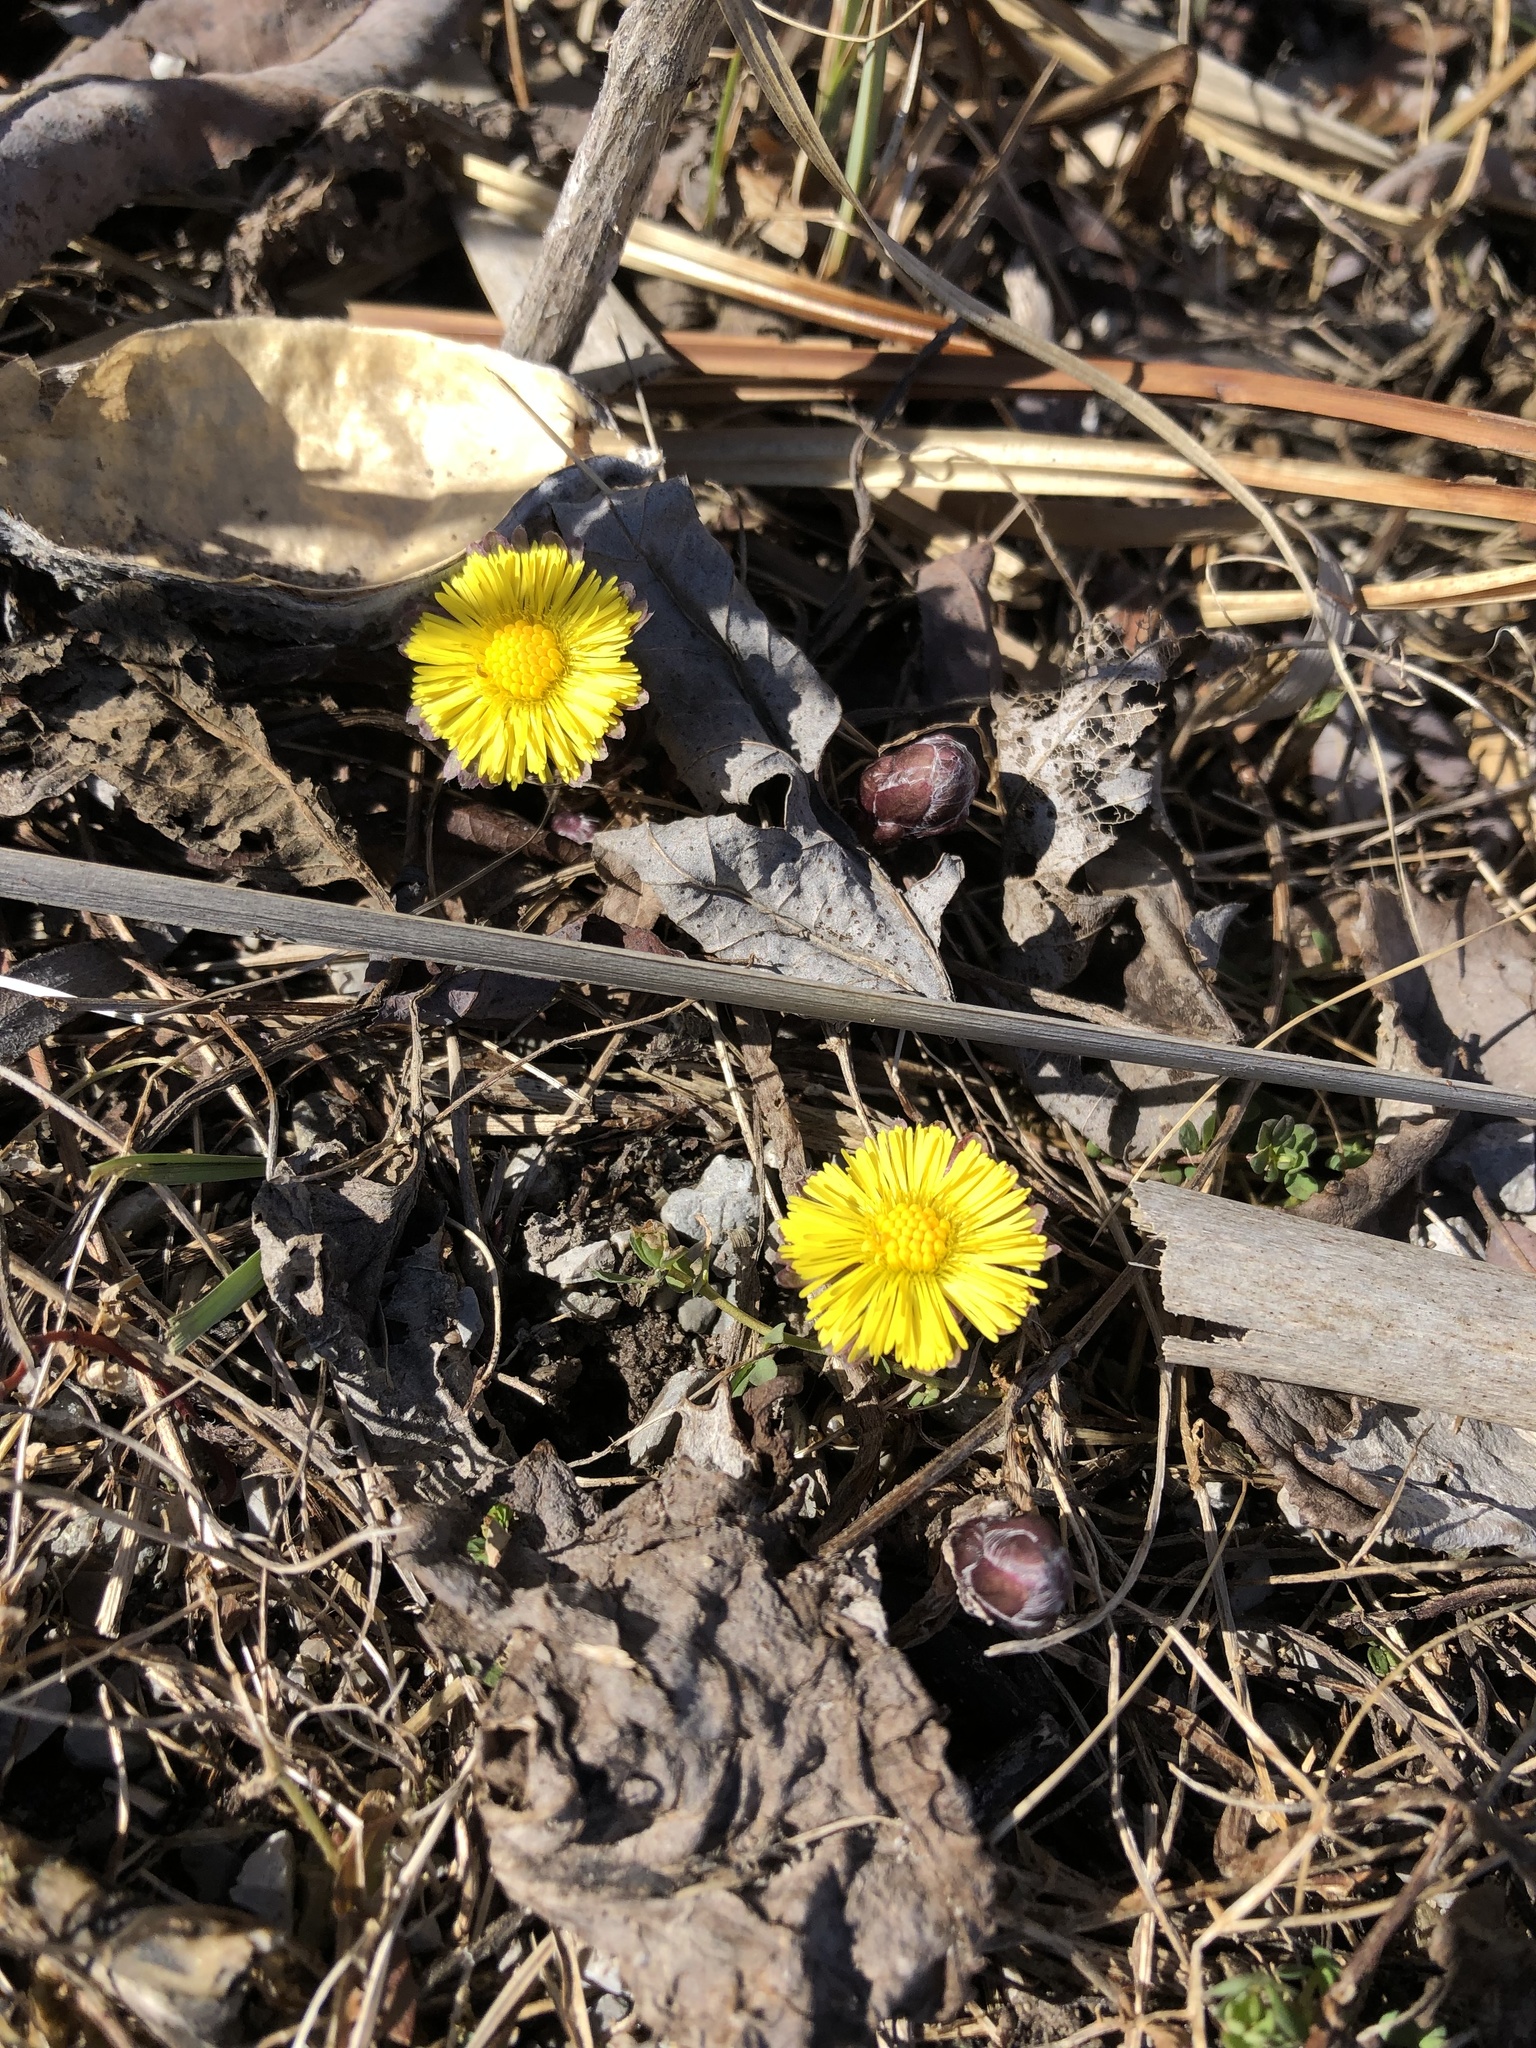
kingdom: Plantae
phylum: Tracheophyta
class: Magnoliopsida
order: Asterales
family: Asteraceae
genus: Tussilago
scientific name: Tussilago farfara
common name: Coltsfoot
